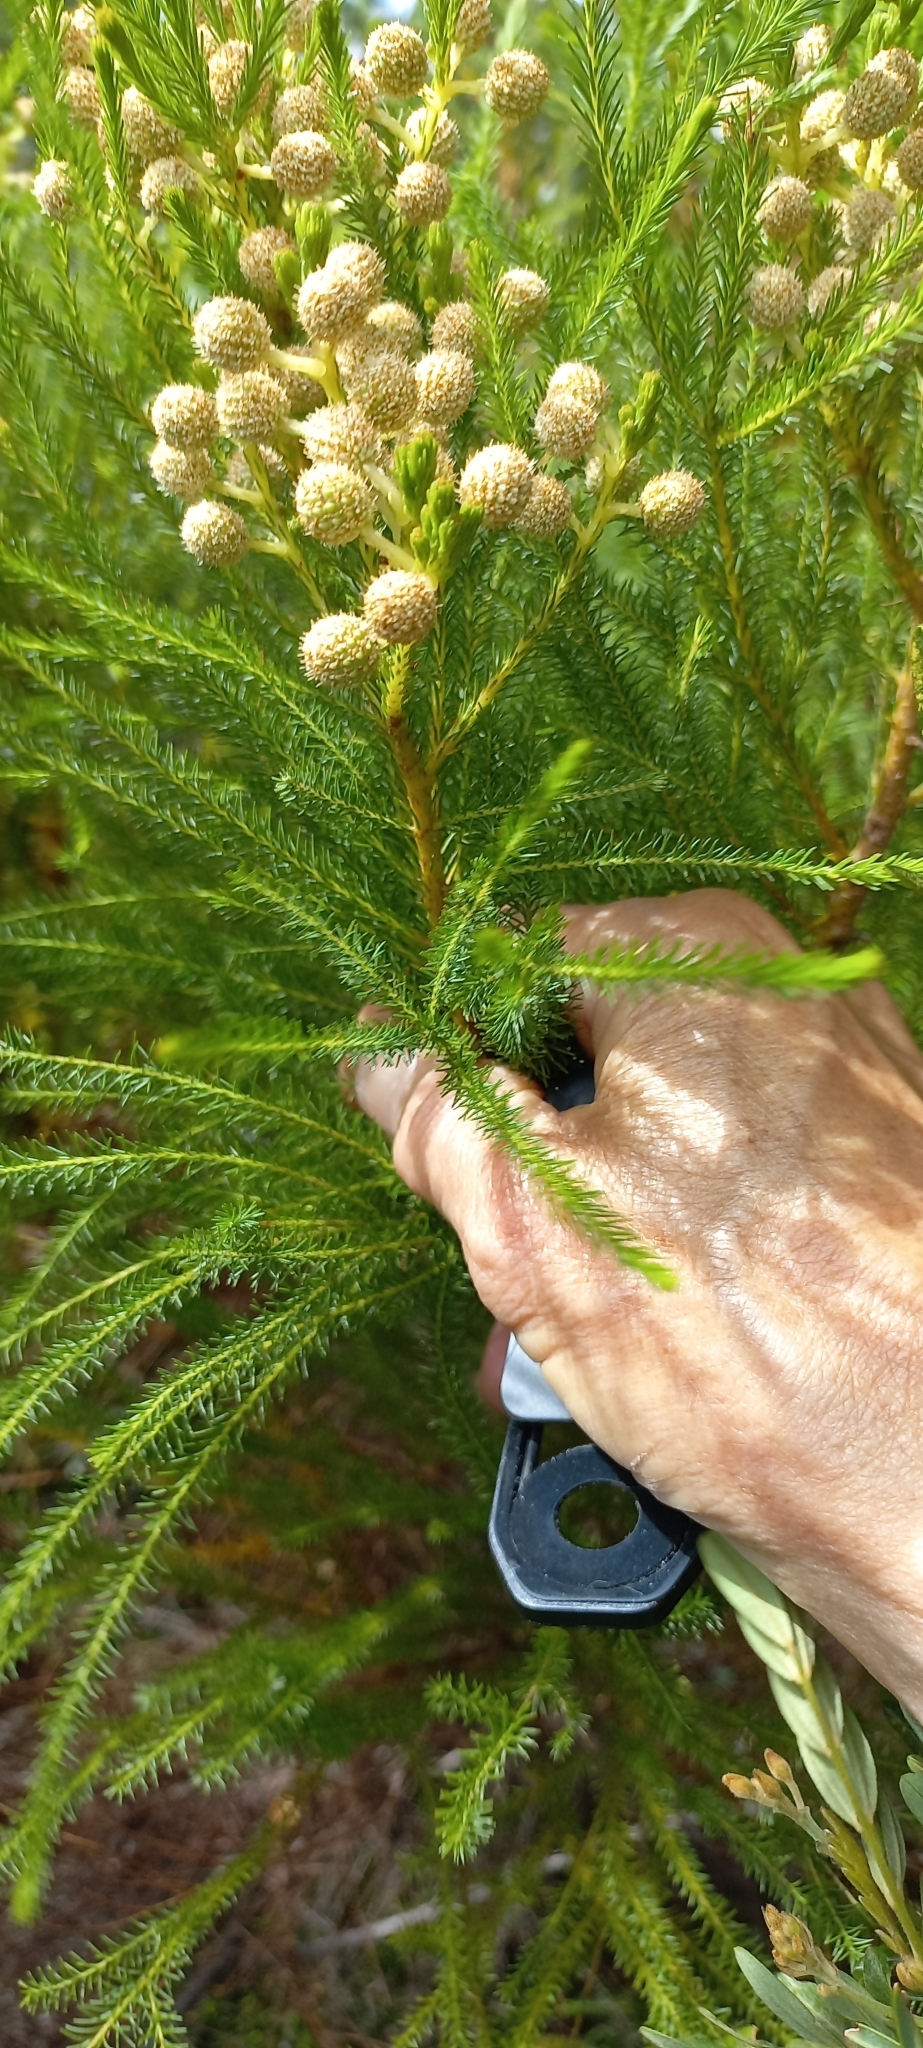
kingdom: Plantae
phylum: Tracheophyta
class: Magnoliopsida
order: Bruniales
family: Bruniaceae
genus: Berzelia
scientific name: Berzelia lanuginosa
